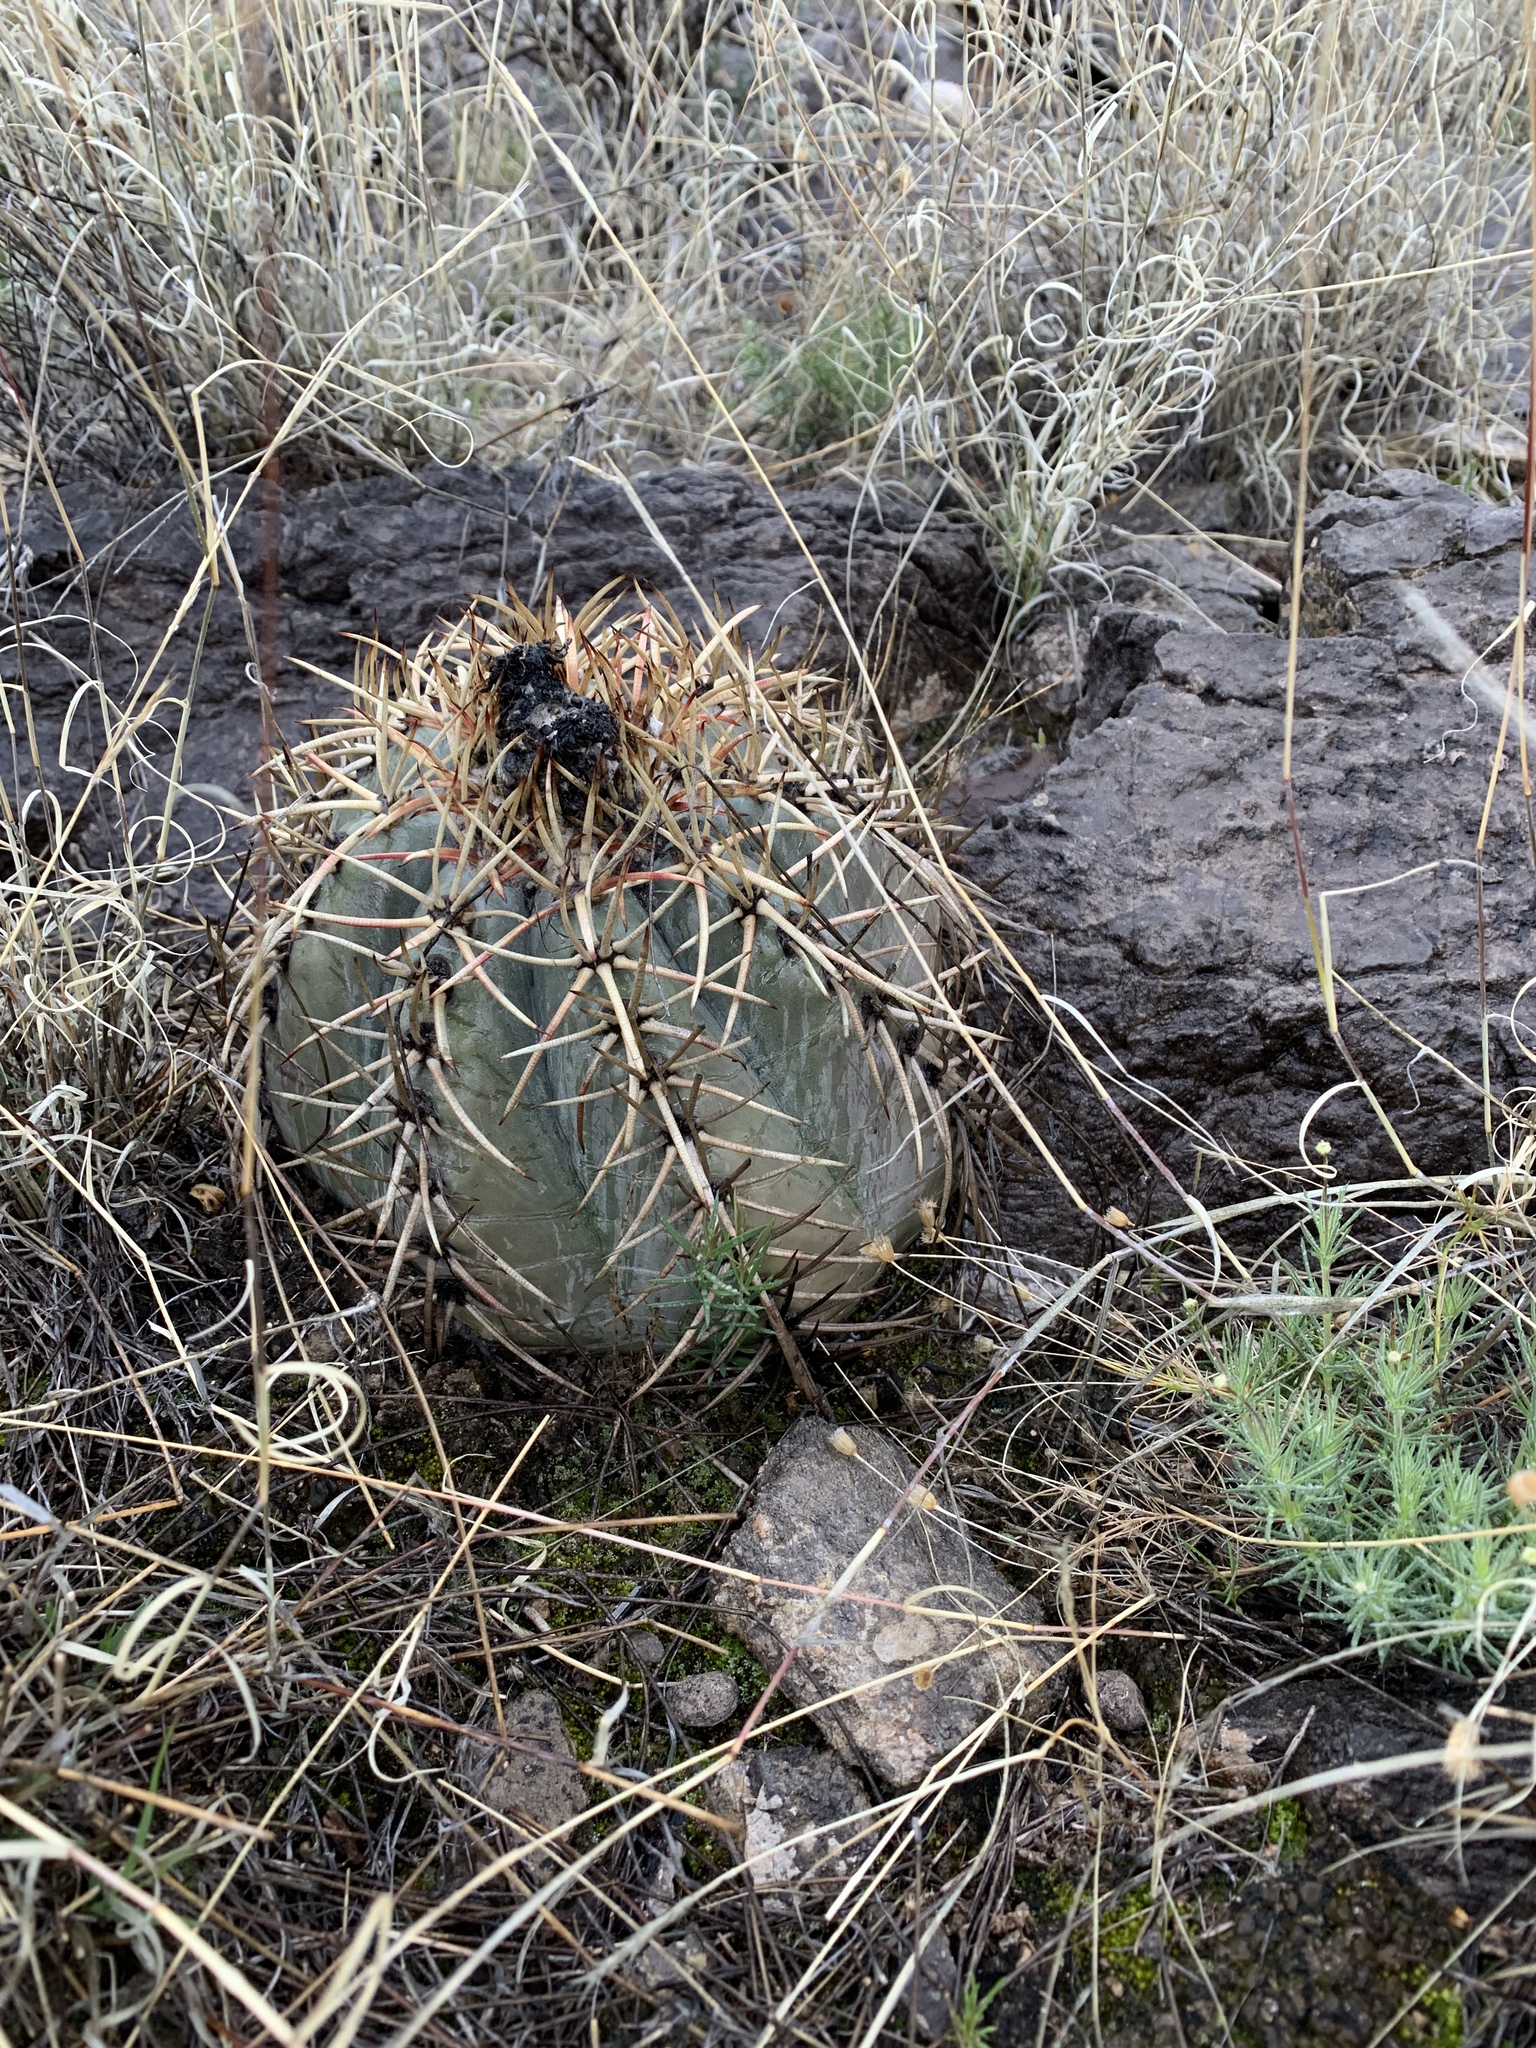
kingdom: Plantae
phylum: Tracheophyta
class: Magnoliopsida
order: Caryophyllales
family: Cactaceae
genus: Echinocactus
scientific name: Echinocactus horizonthalonius
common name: Devilshead
